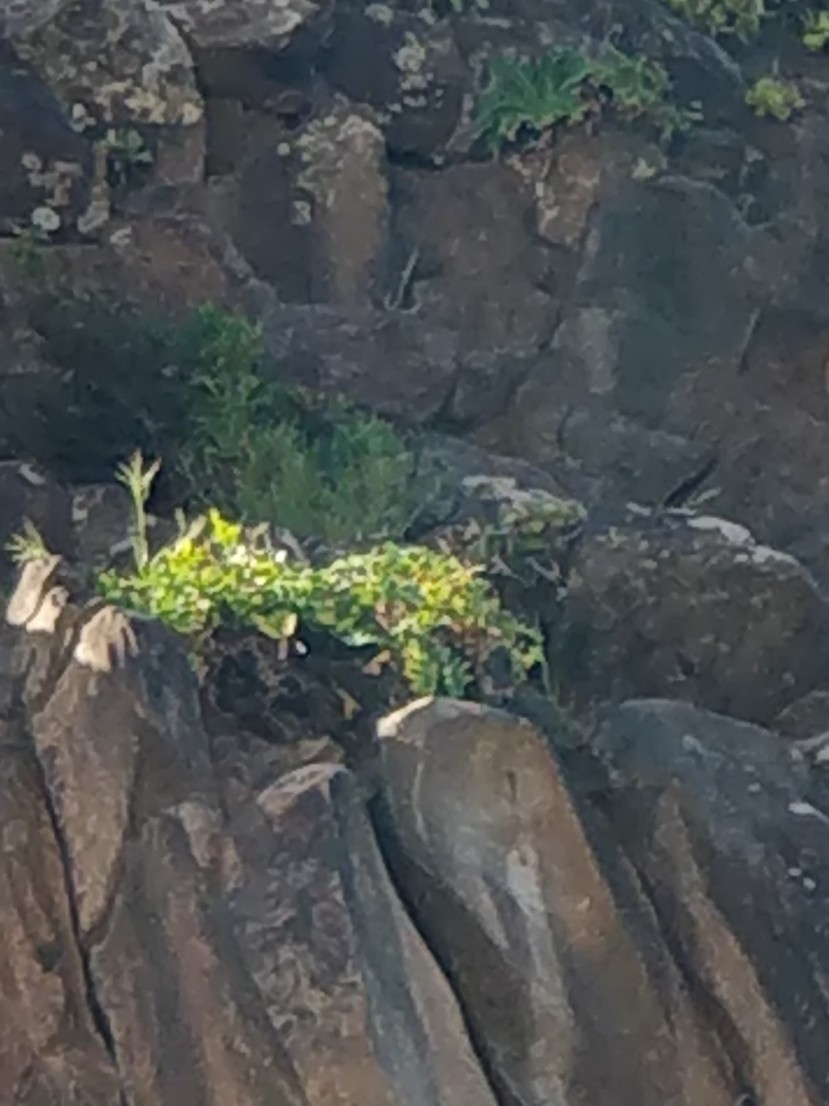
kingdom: Plantae
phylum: Tracheophyta
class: Magnoliopsida
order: Asterales
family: Asteraceae
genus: Sonchus
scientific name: Sonchus latifolius
